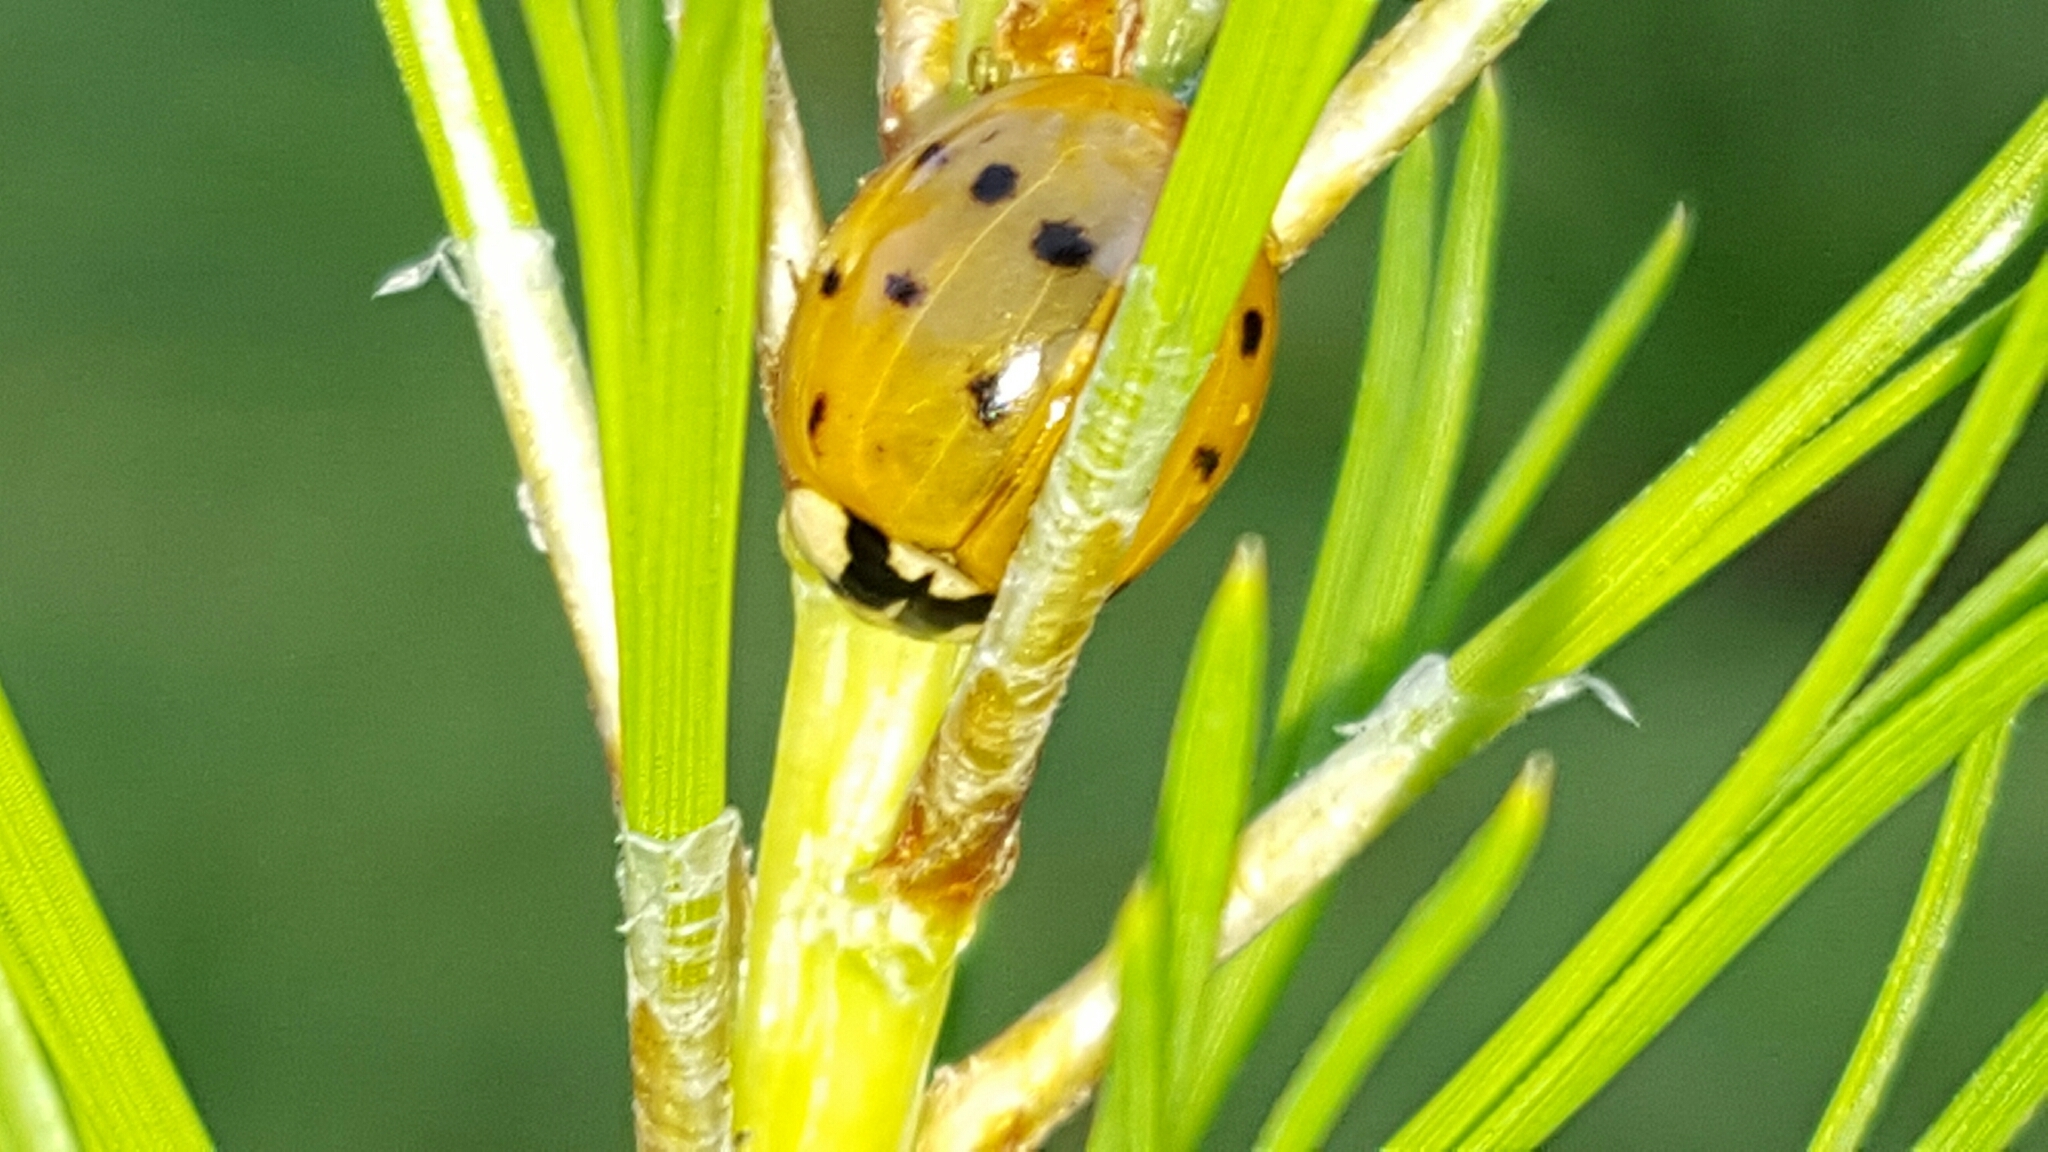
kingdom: Animalia
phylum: Arthropoda
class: Insecta
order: Coleoptera
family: Coccinellidae
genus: Harmonia
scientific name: Harmonia axyridis
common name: Harlequin ladybird
